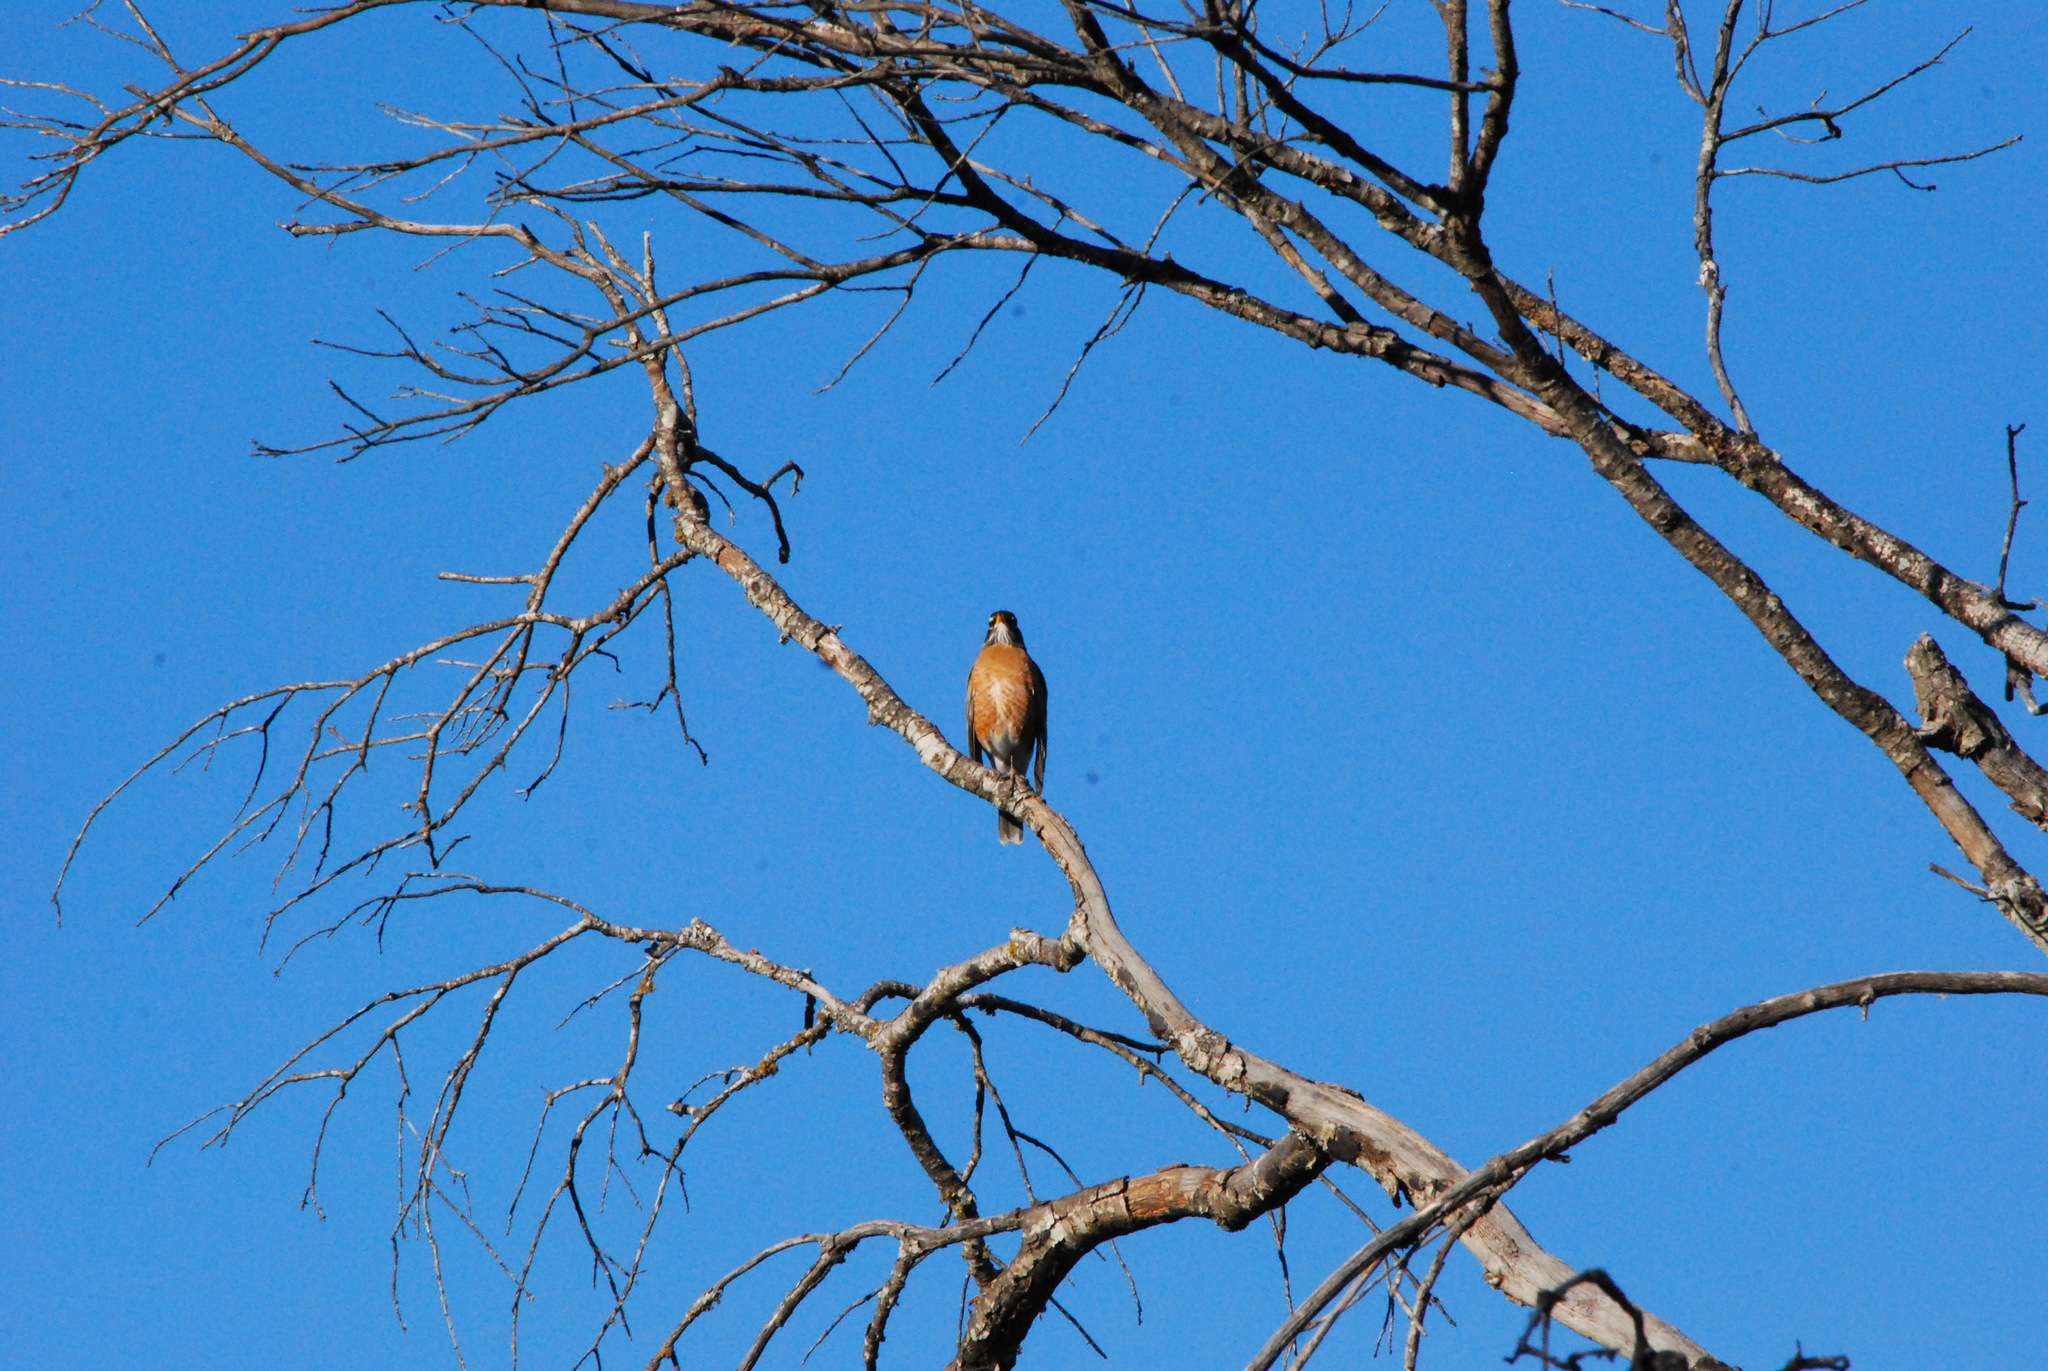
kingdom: Animalia
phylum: Chordata
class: Aves
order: Passeriformes
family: Turdidae
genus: Turdus
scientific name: Turdus migratorius
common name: American robin
